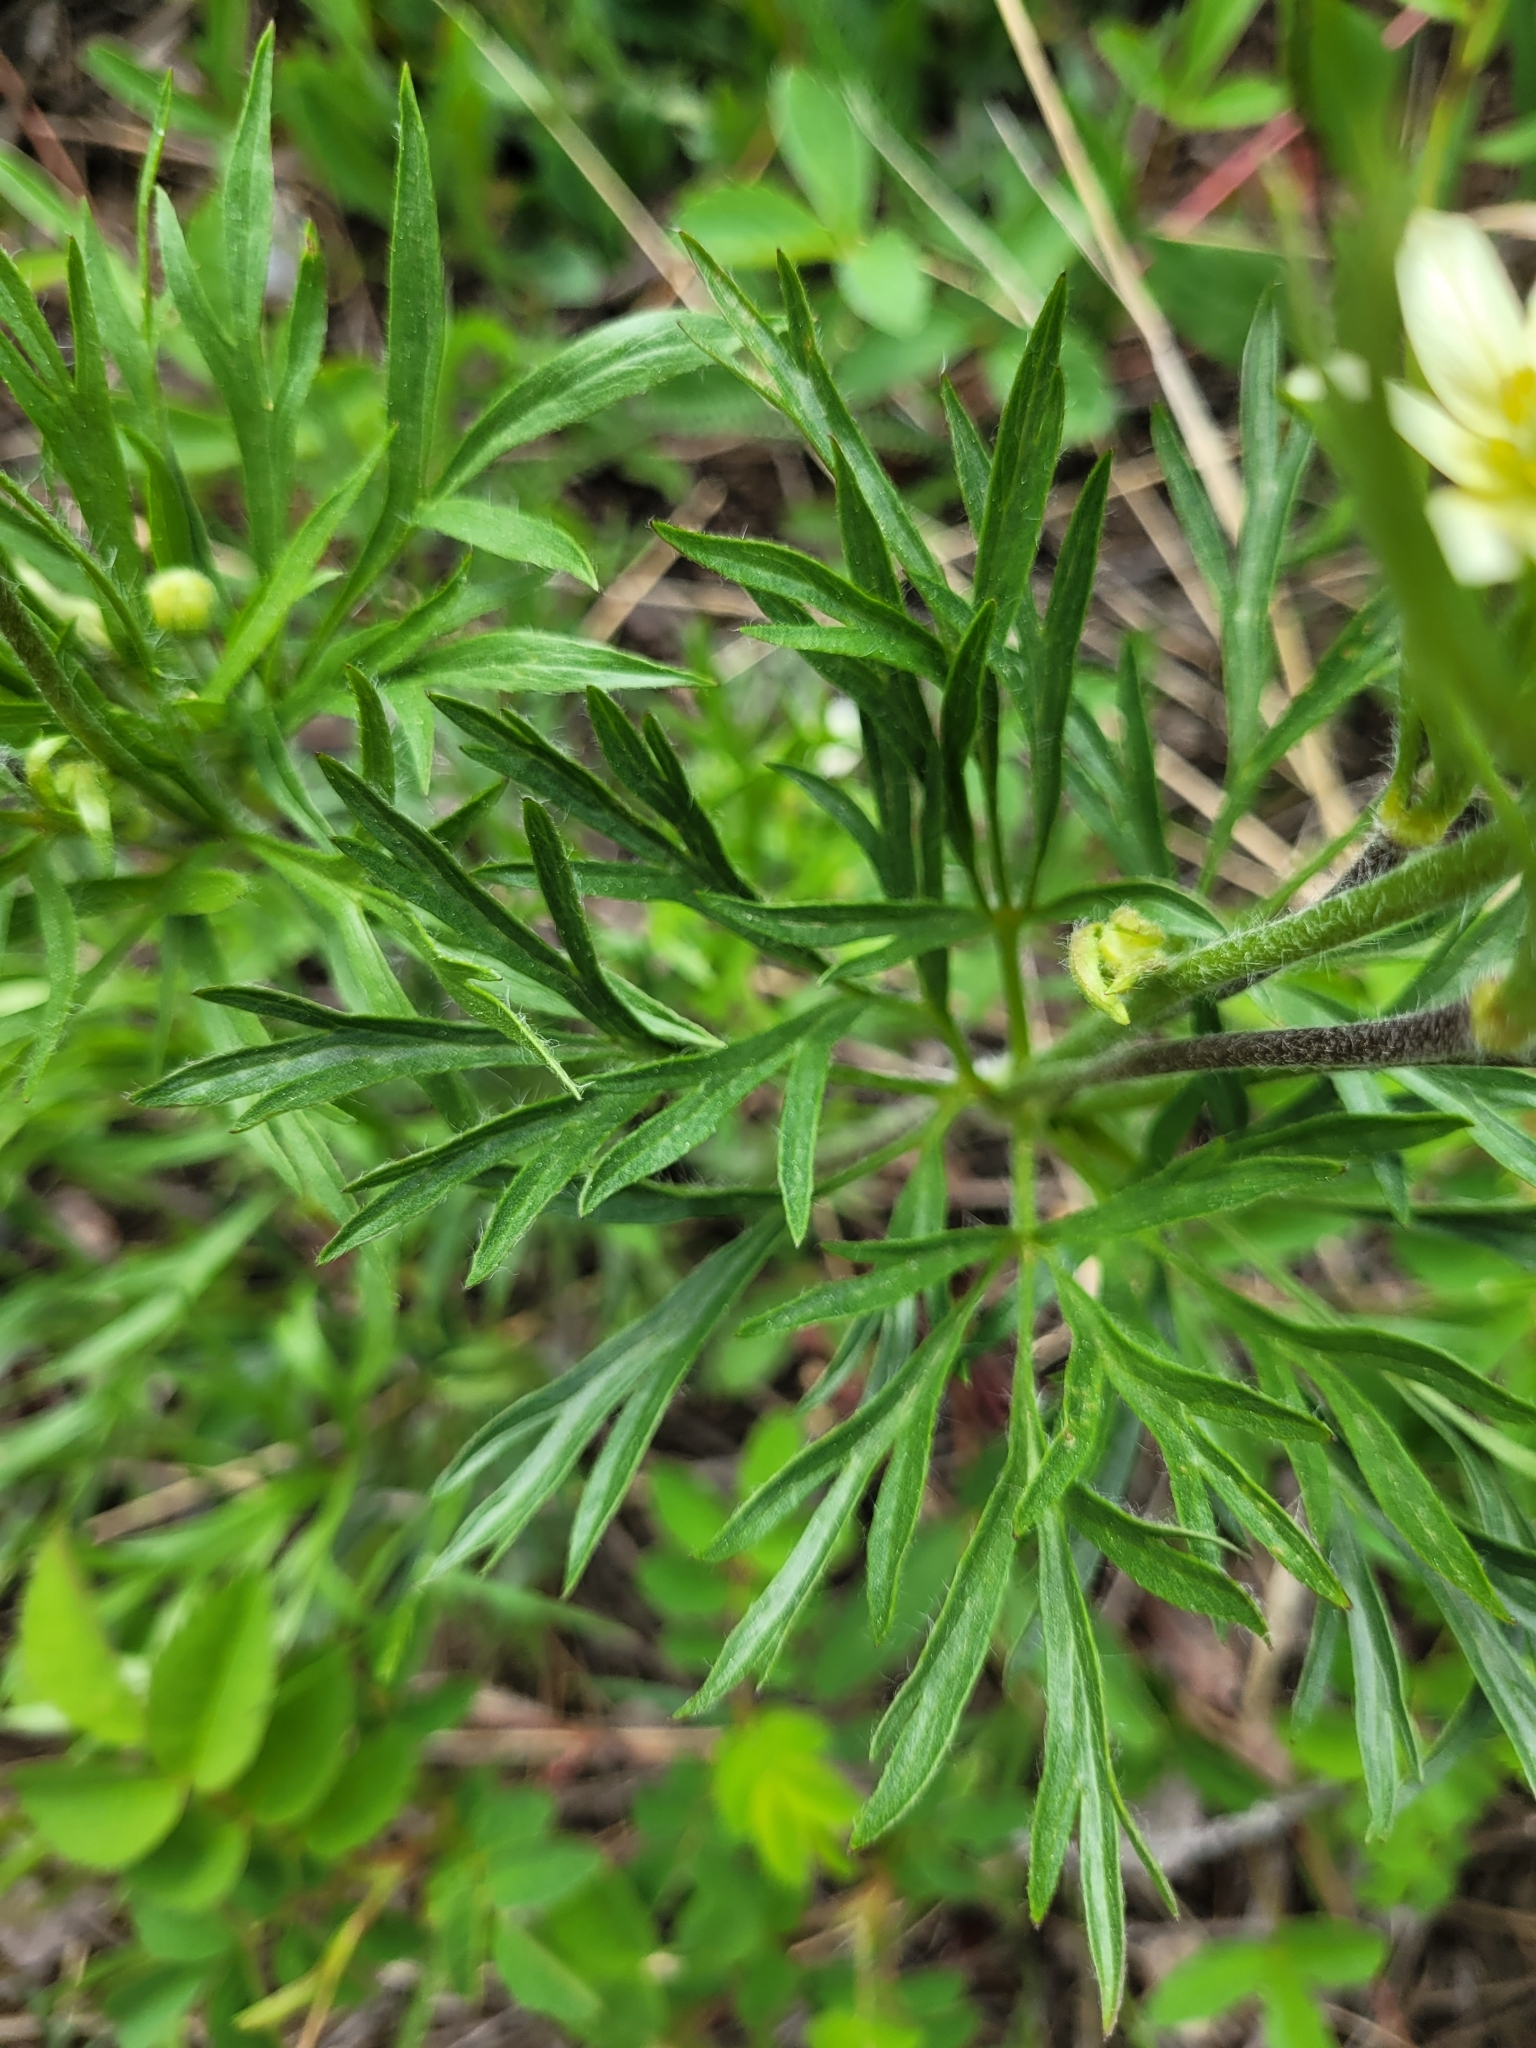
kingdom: Plantae
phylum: Tracheophyta
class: Magnoliopsida
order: Ranunculales
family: Ranunculaceae
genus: Anemone
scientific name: Anemone multifida
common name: Bird's-foot anemone
